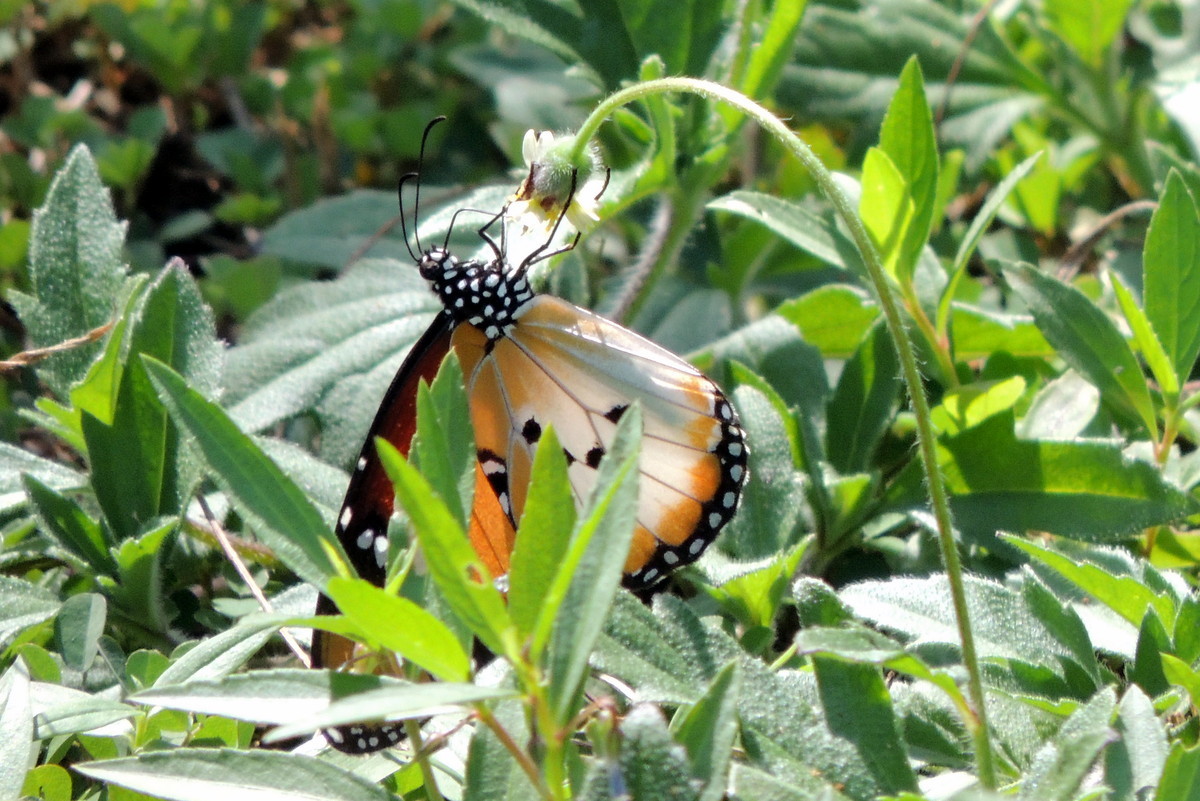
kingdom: Animalia
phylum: Arthropoda
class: Insecta
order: Lepidoptera
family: Nymphalidae
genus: Danaus
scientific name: Danaus chrysippus
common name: Plain tiger
